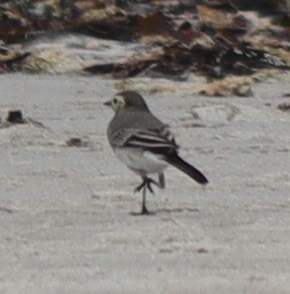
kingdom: Animalia
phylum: Chordata
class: Aves
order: Passeriformes
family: Motacillidae
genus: Motacilla
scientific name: Motacilla alba
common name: White wagtail
